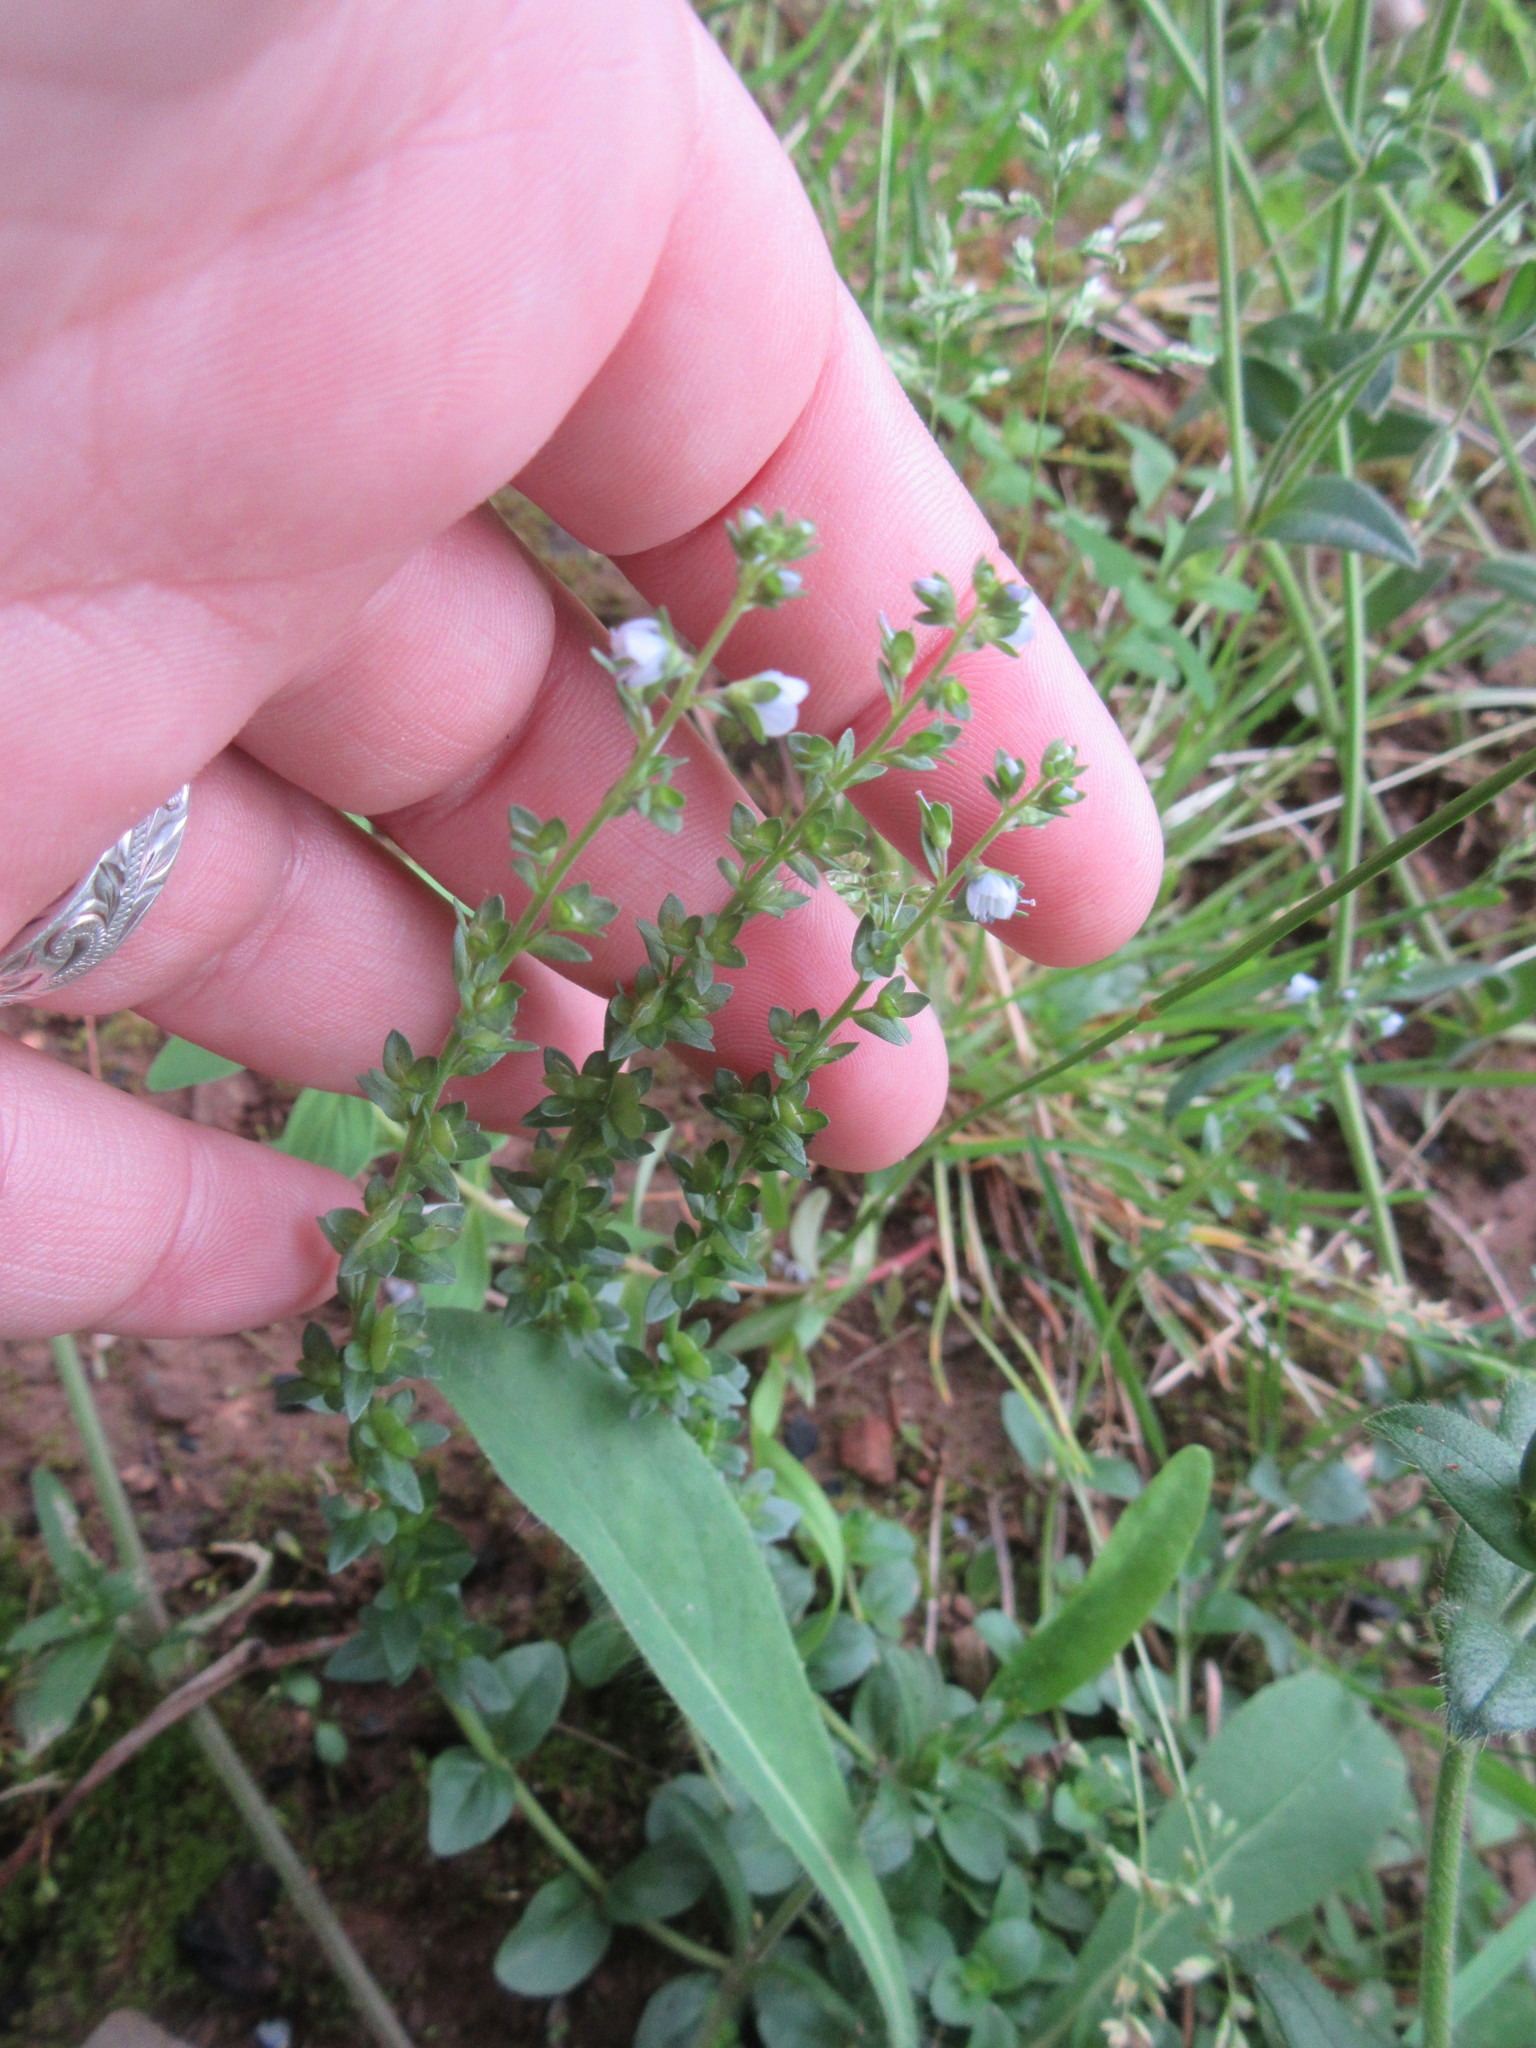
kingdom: Plantae
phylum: Tracheophyta
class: Magnoliopsida
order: Lamiales
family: Plantaginaceae
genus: Veronica
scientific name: Veronica serpyllifolia
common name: Thyme-leaved speedwell
